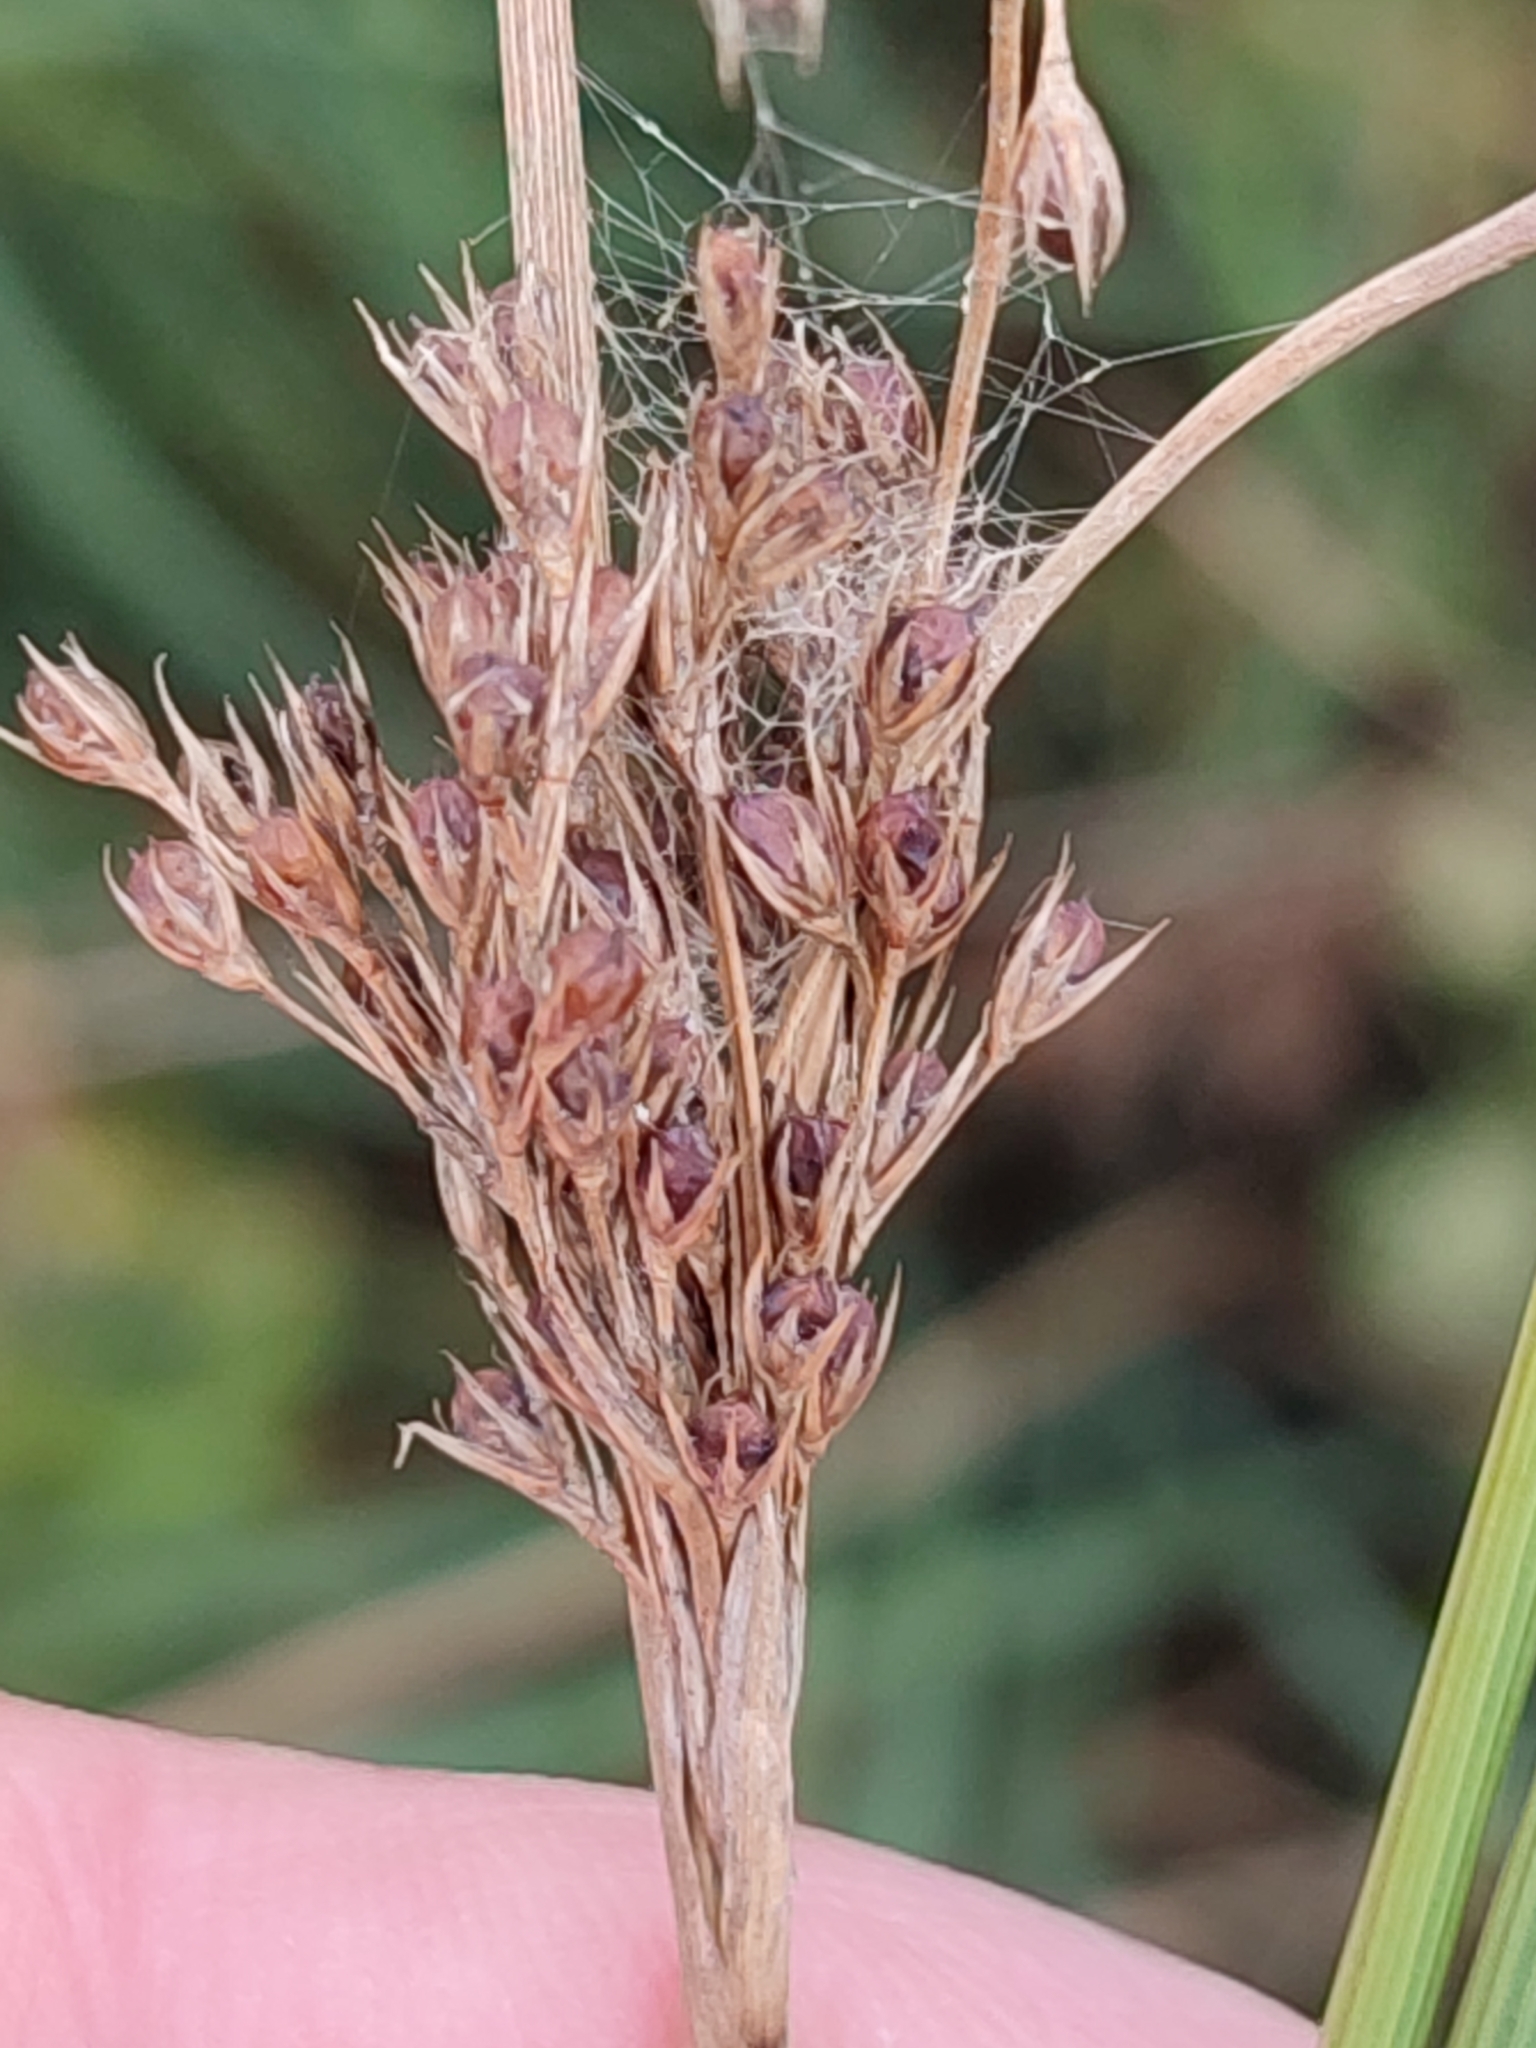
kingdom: Plantae
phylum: Tracheophyta
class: Liliopsida
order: Poales
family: Juncaceae
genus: Juncus
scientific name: Juncus inflexus
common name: Hard rush
